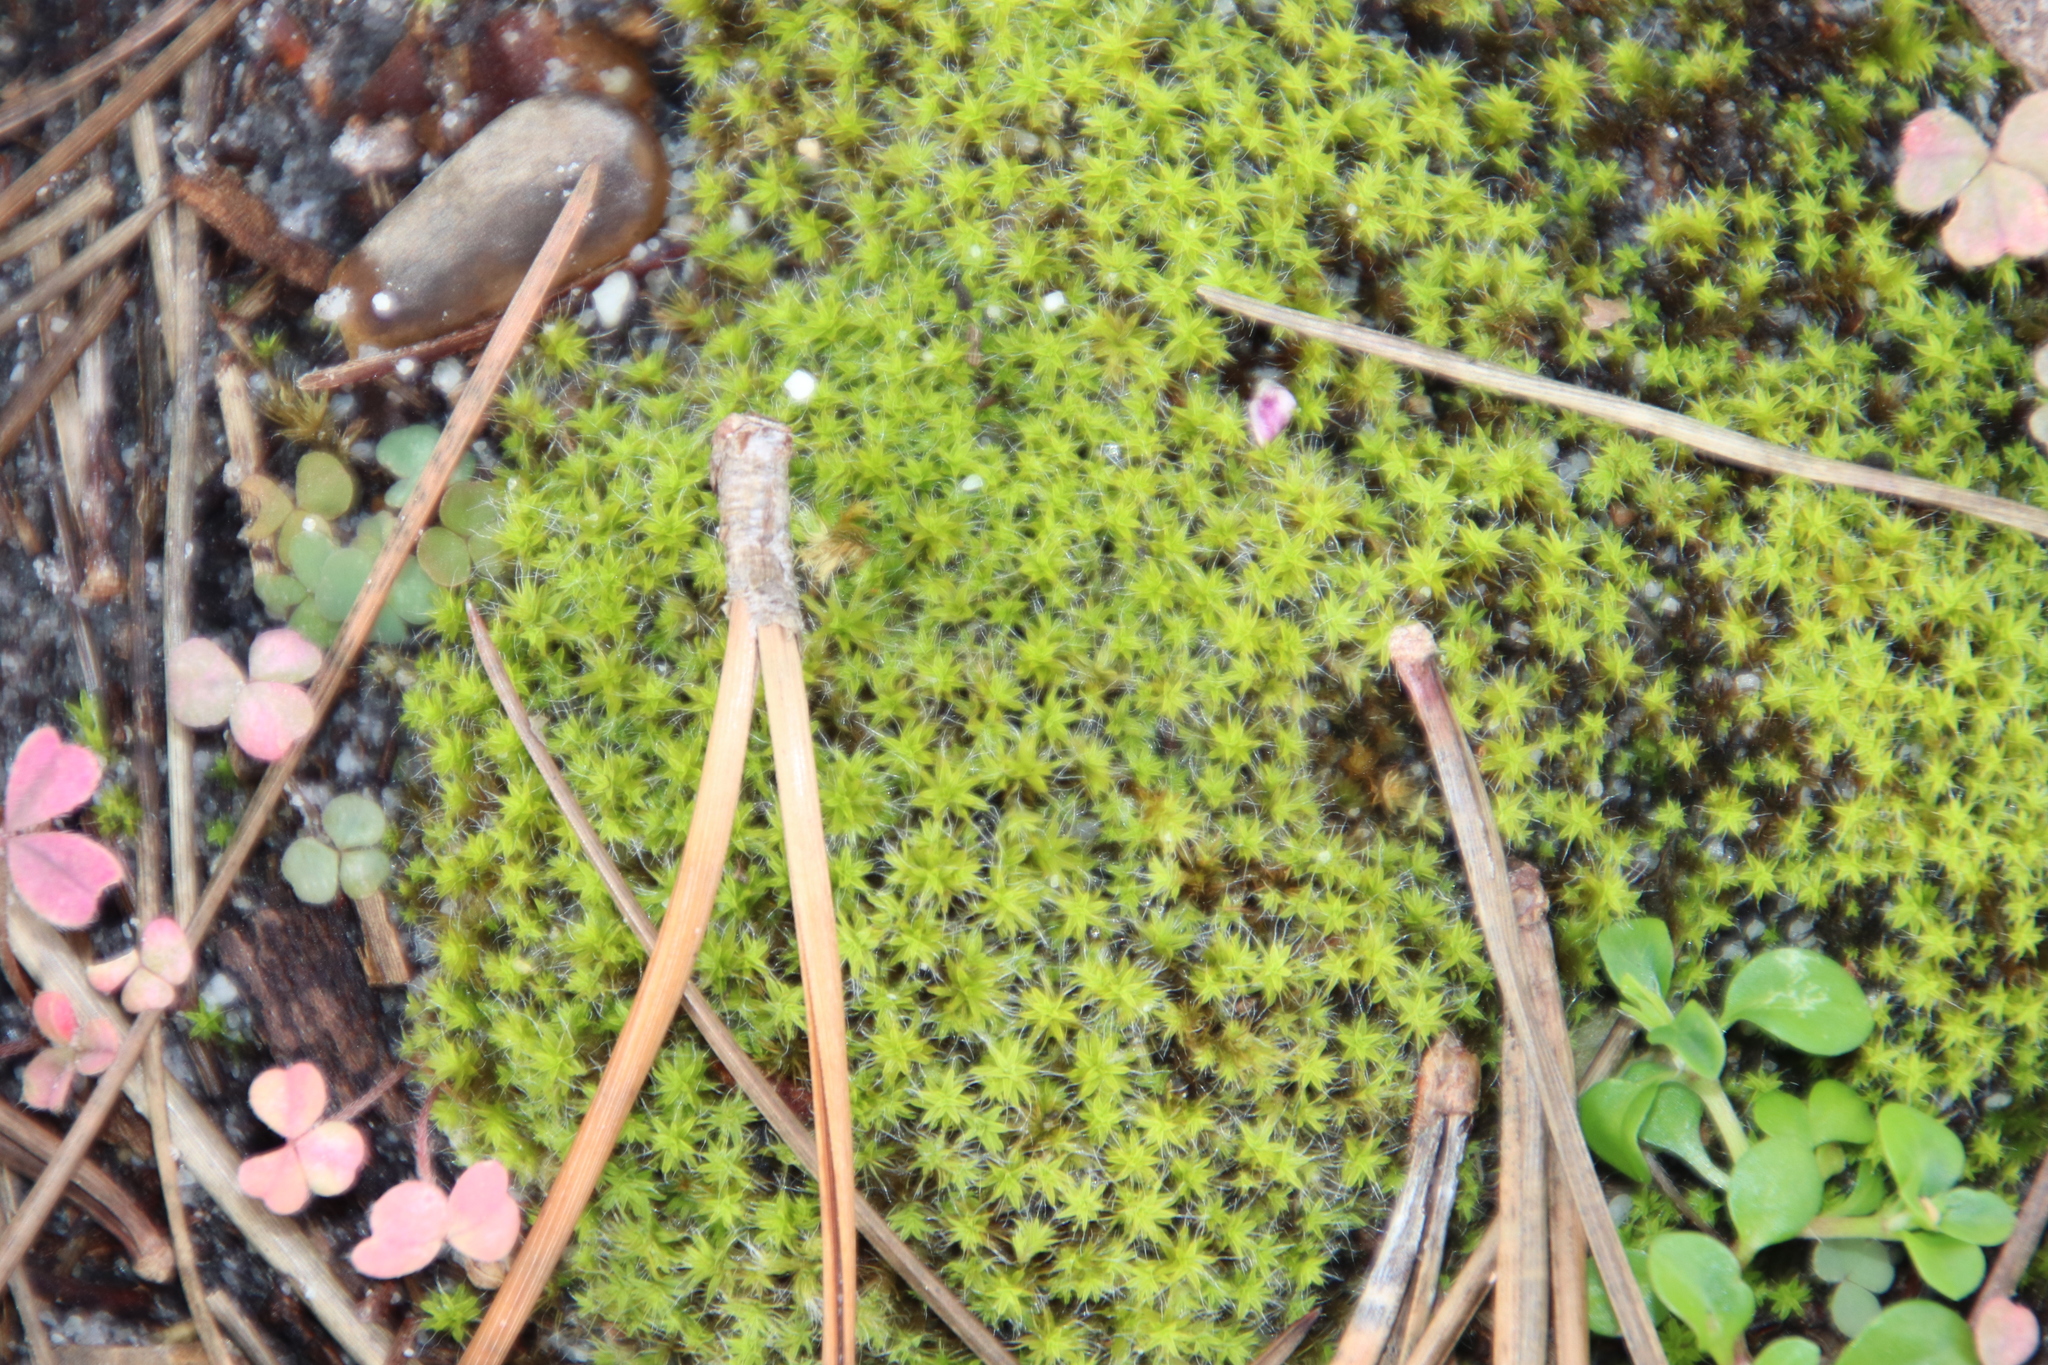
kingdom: Plantae
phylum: Bryophyta
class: Bryopsida
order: Pottiales
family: Pottiaceae
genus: Pseudocrossidium
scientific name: Pseudocrossidium crinitum
